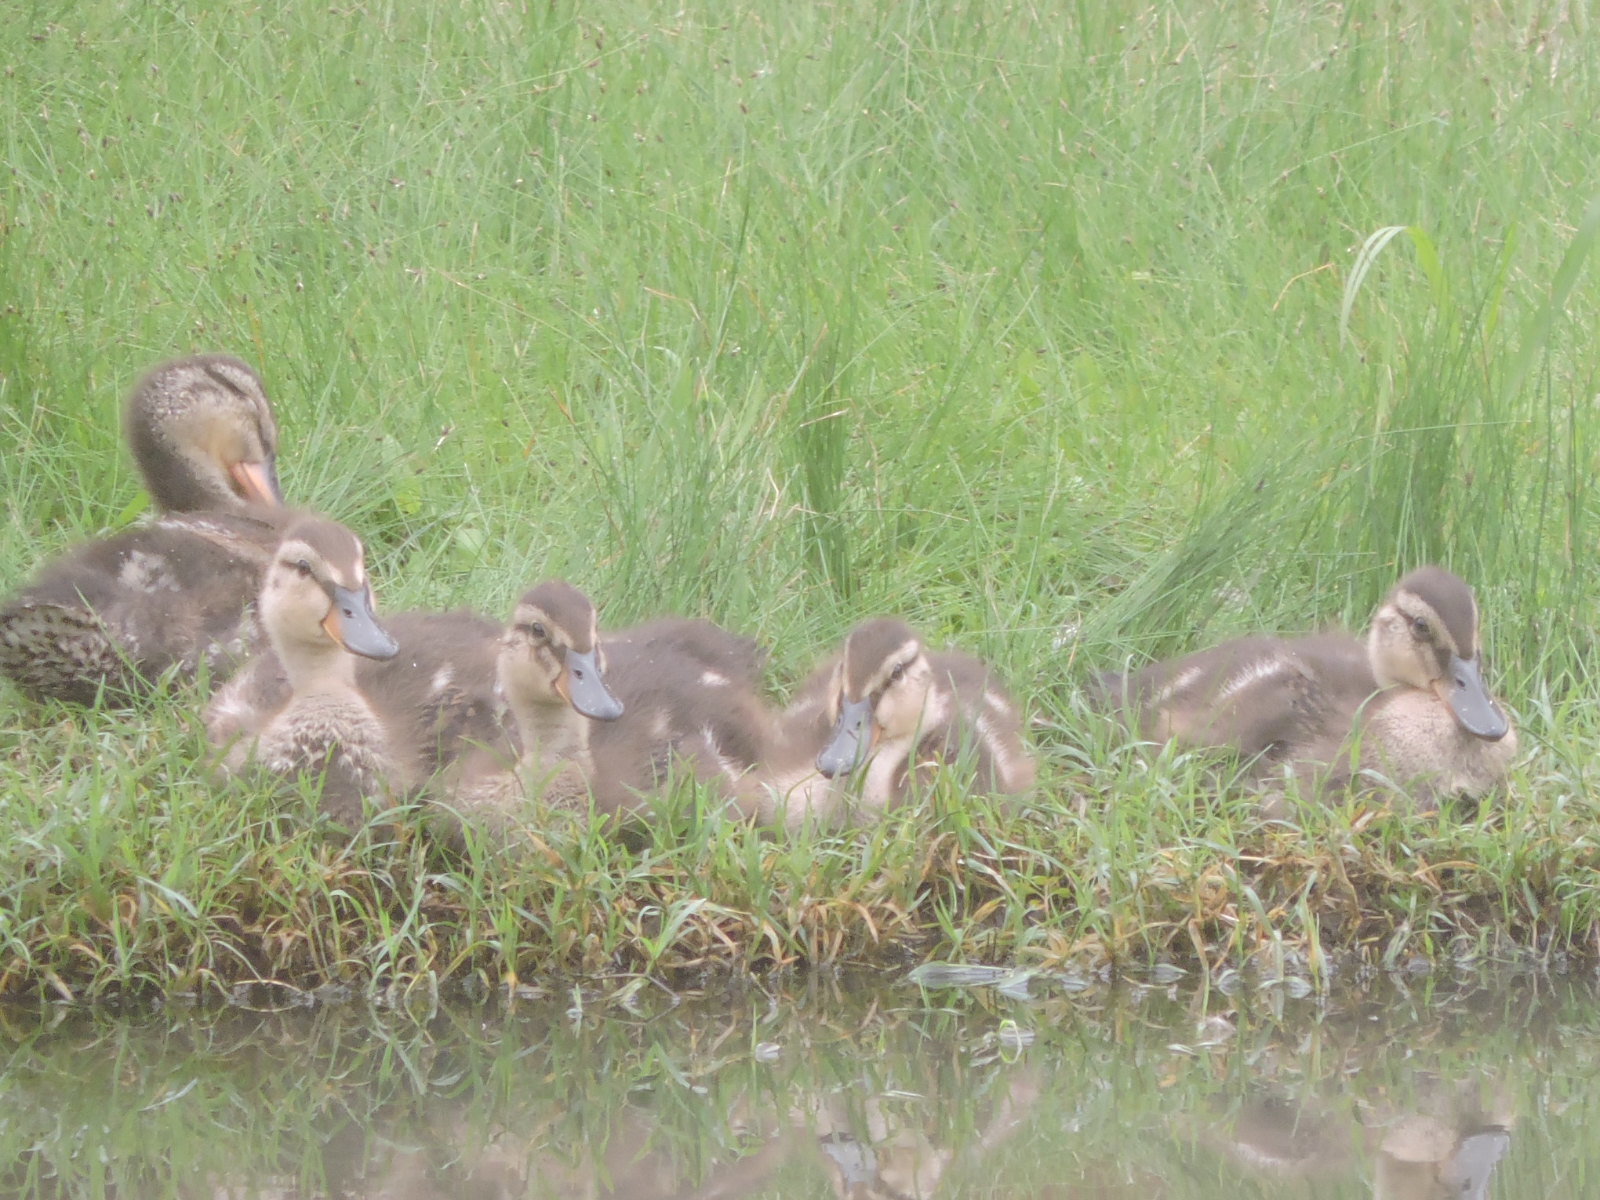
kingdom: Animalia
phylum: Chordata
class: Aves
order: Anseriformes
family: Anatidae
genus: Anas
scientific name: Anas platyrhynchos
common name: Mallard
